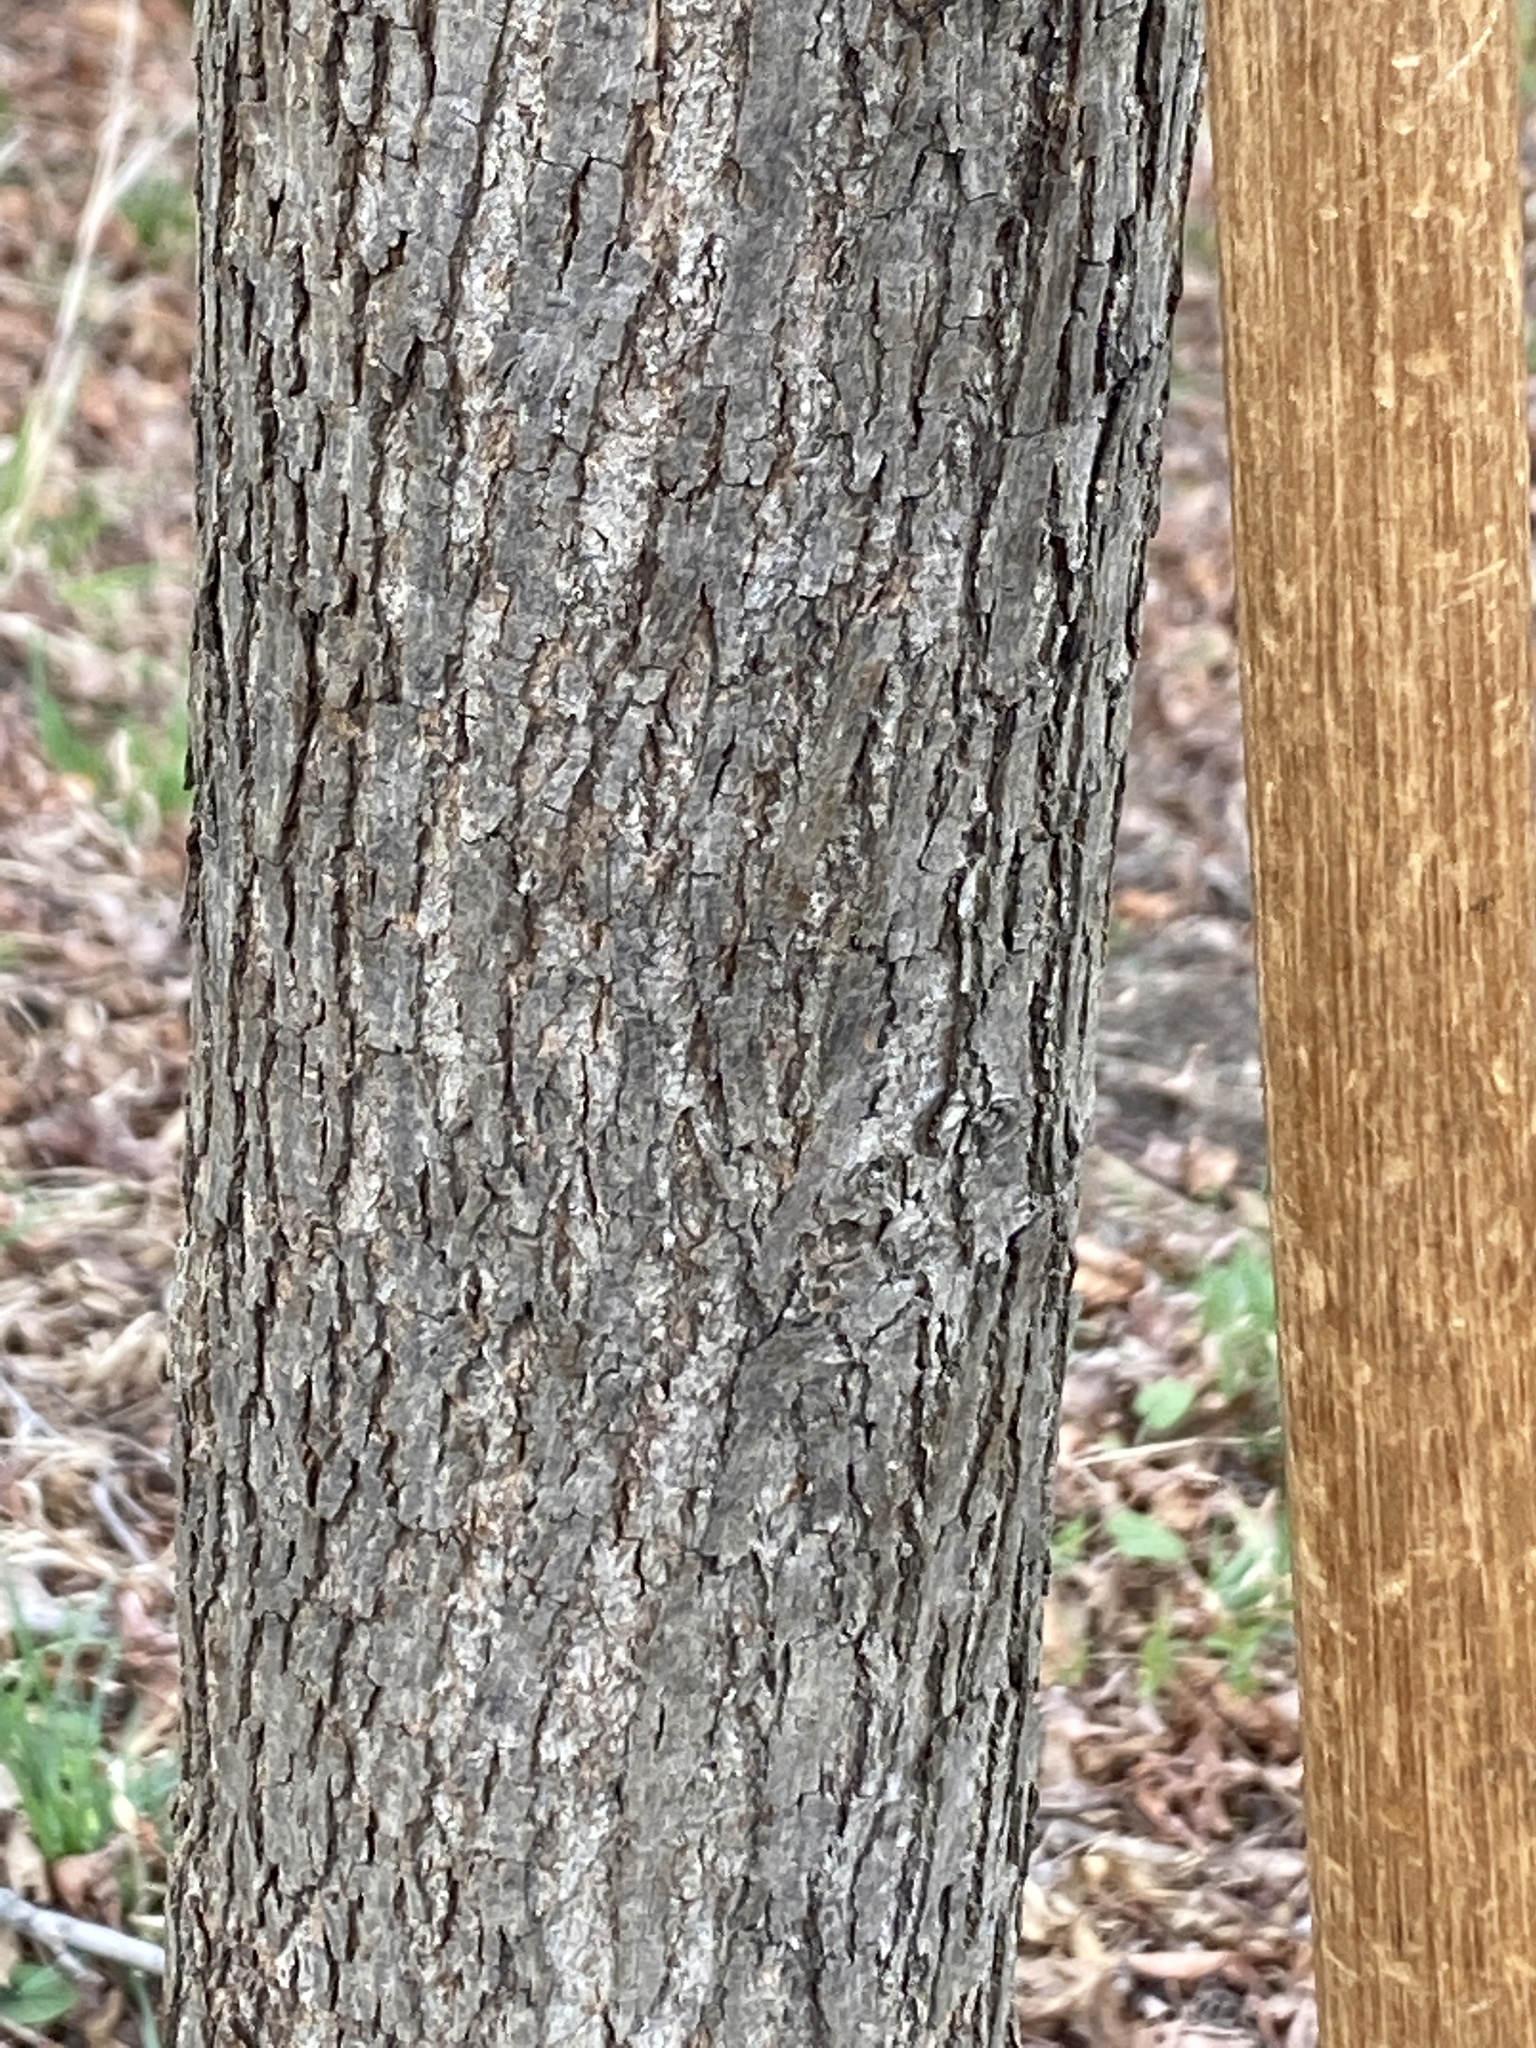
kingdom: Plantae
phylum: Tracheophyta
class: Magnoliopsida
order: Fagales
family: Juglandaceae
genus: Carya
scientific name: Carya cordiformis
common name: Bitternut hickory
